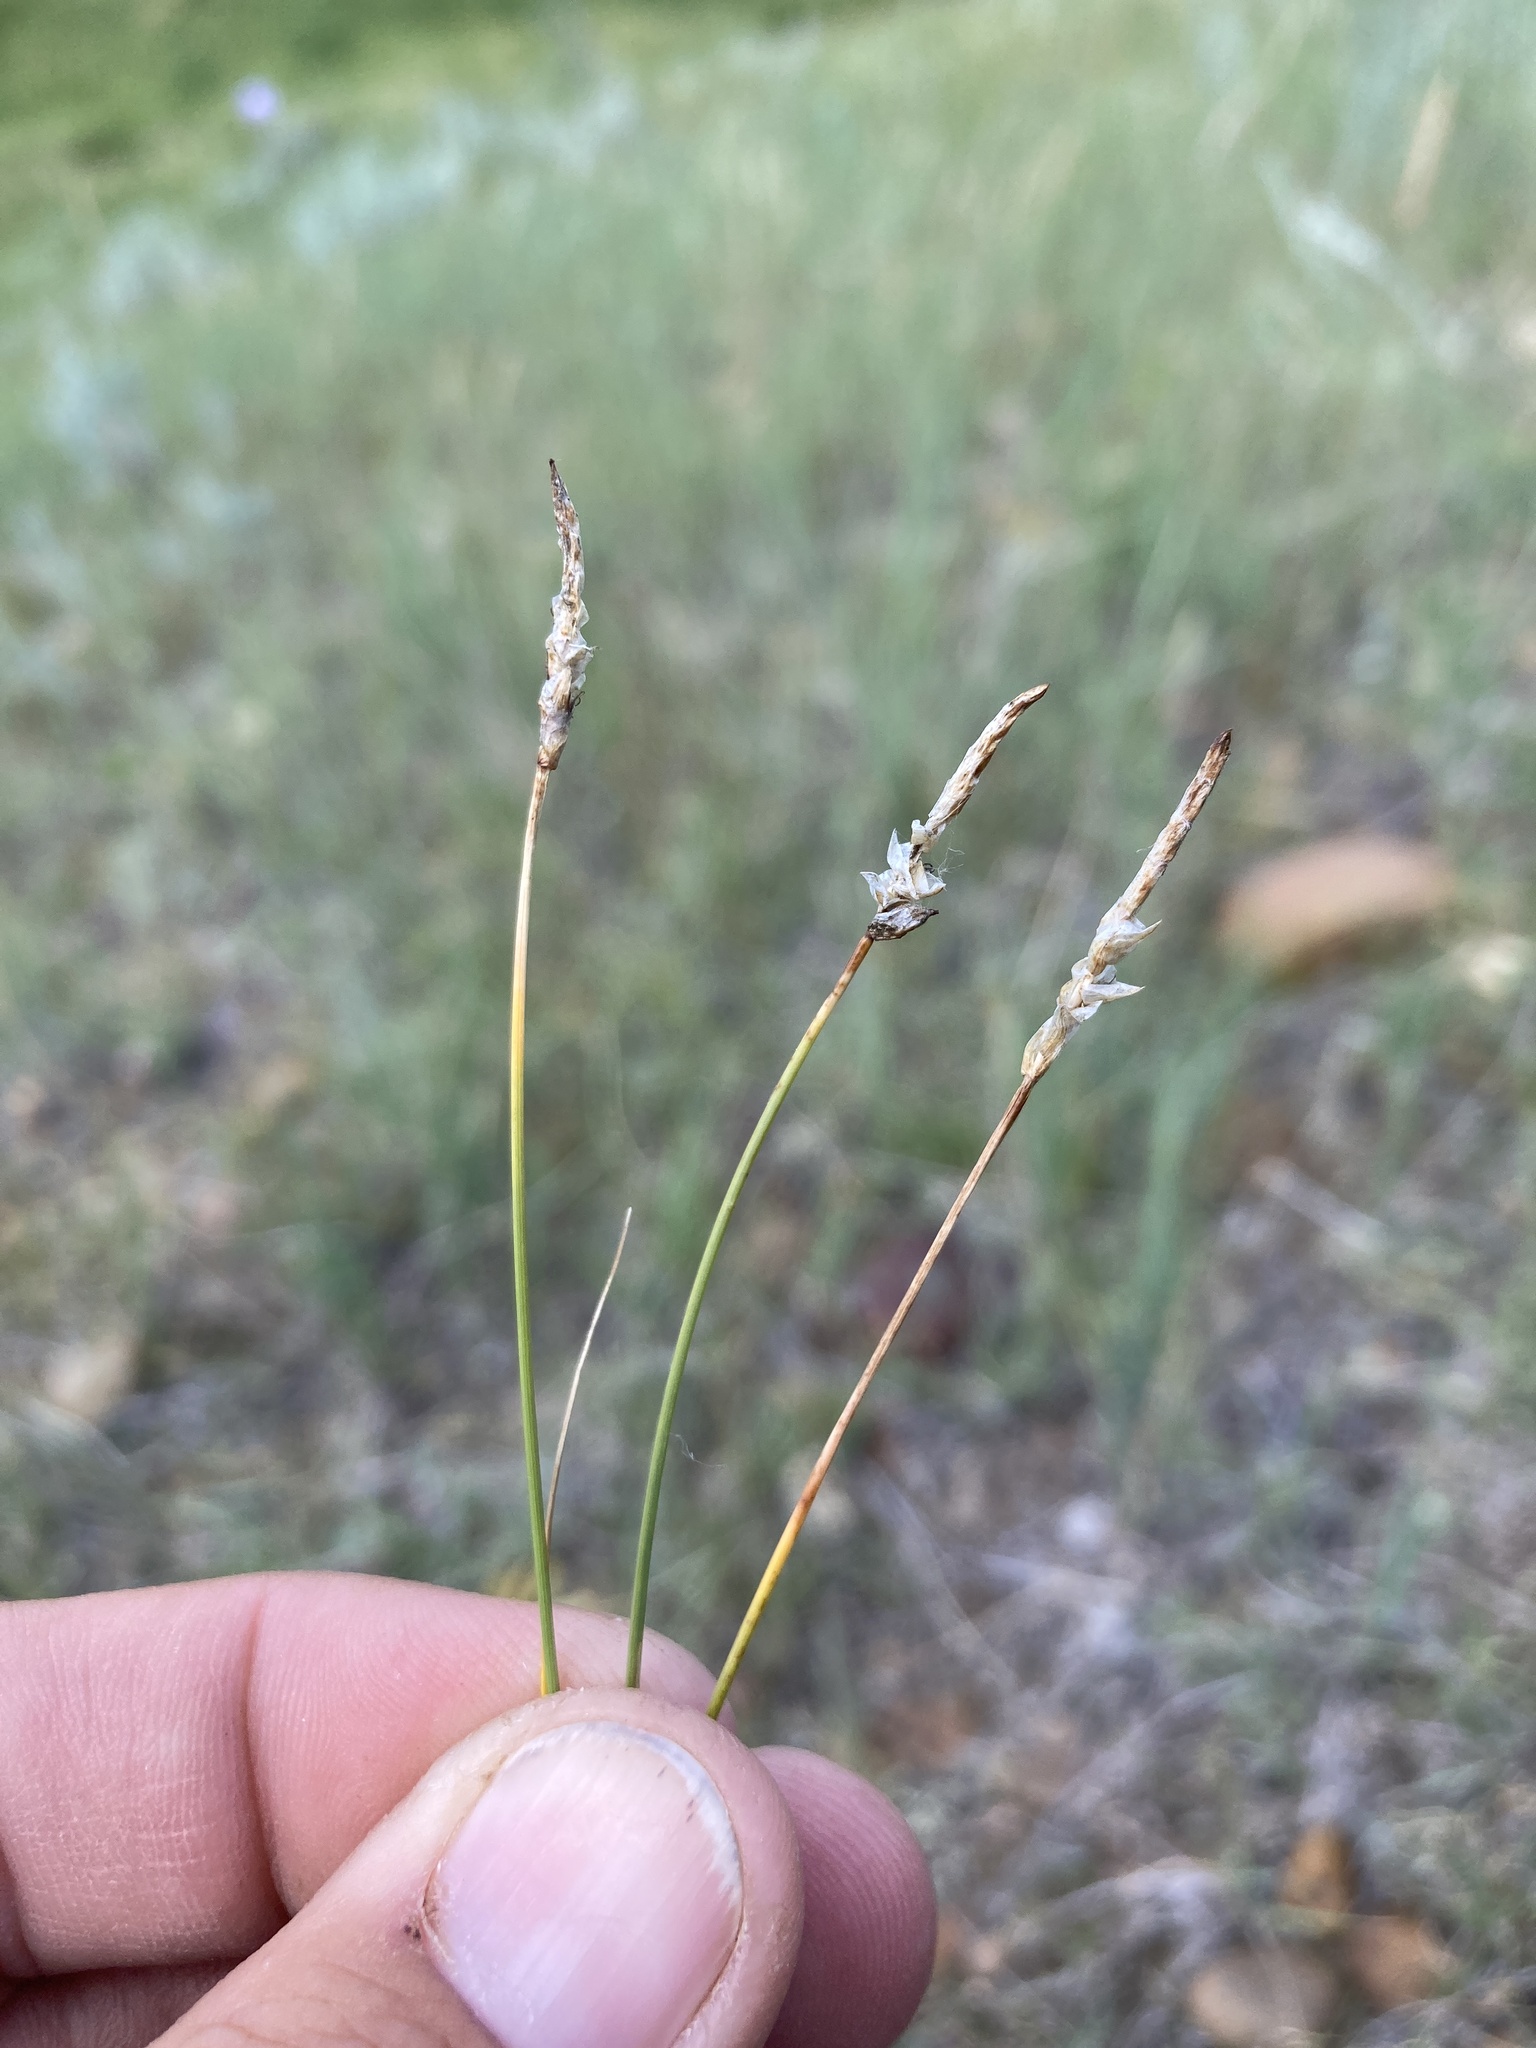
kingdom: Plantae
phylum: Tracheophyta
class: Liliopsida
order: Poales
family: Cyperaceae
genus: Carex
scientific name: Carex filifolia
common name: Threadleaf sedge
